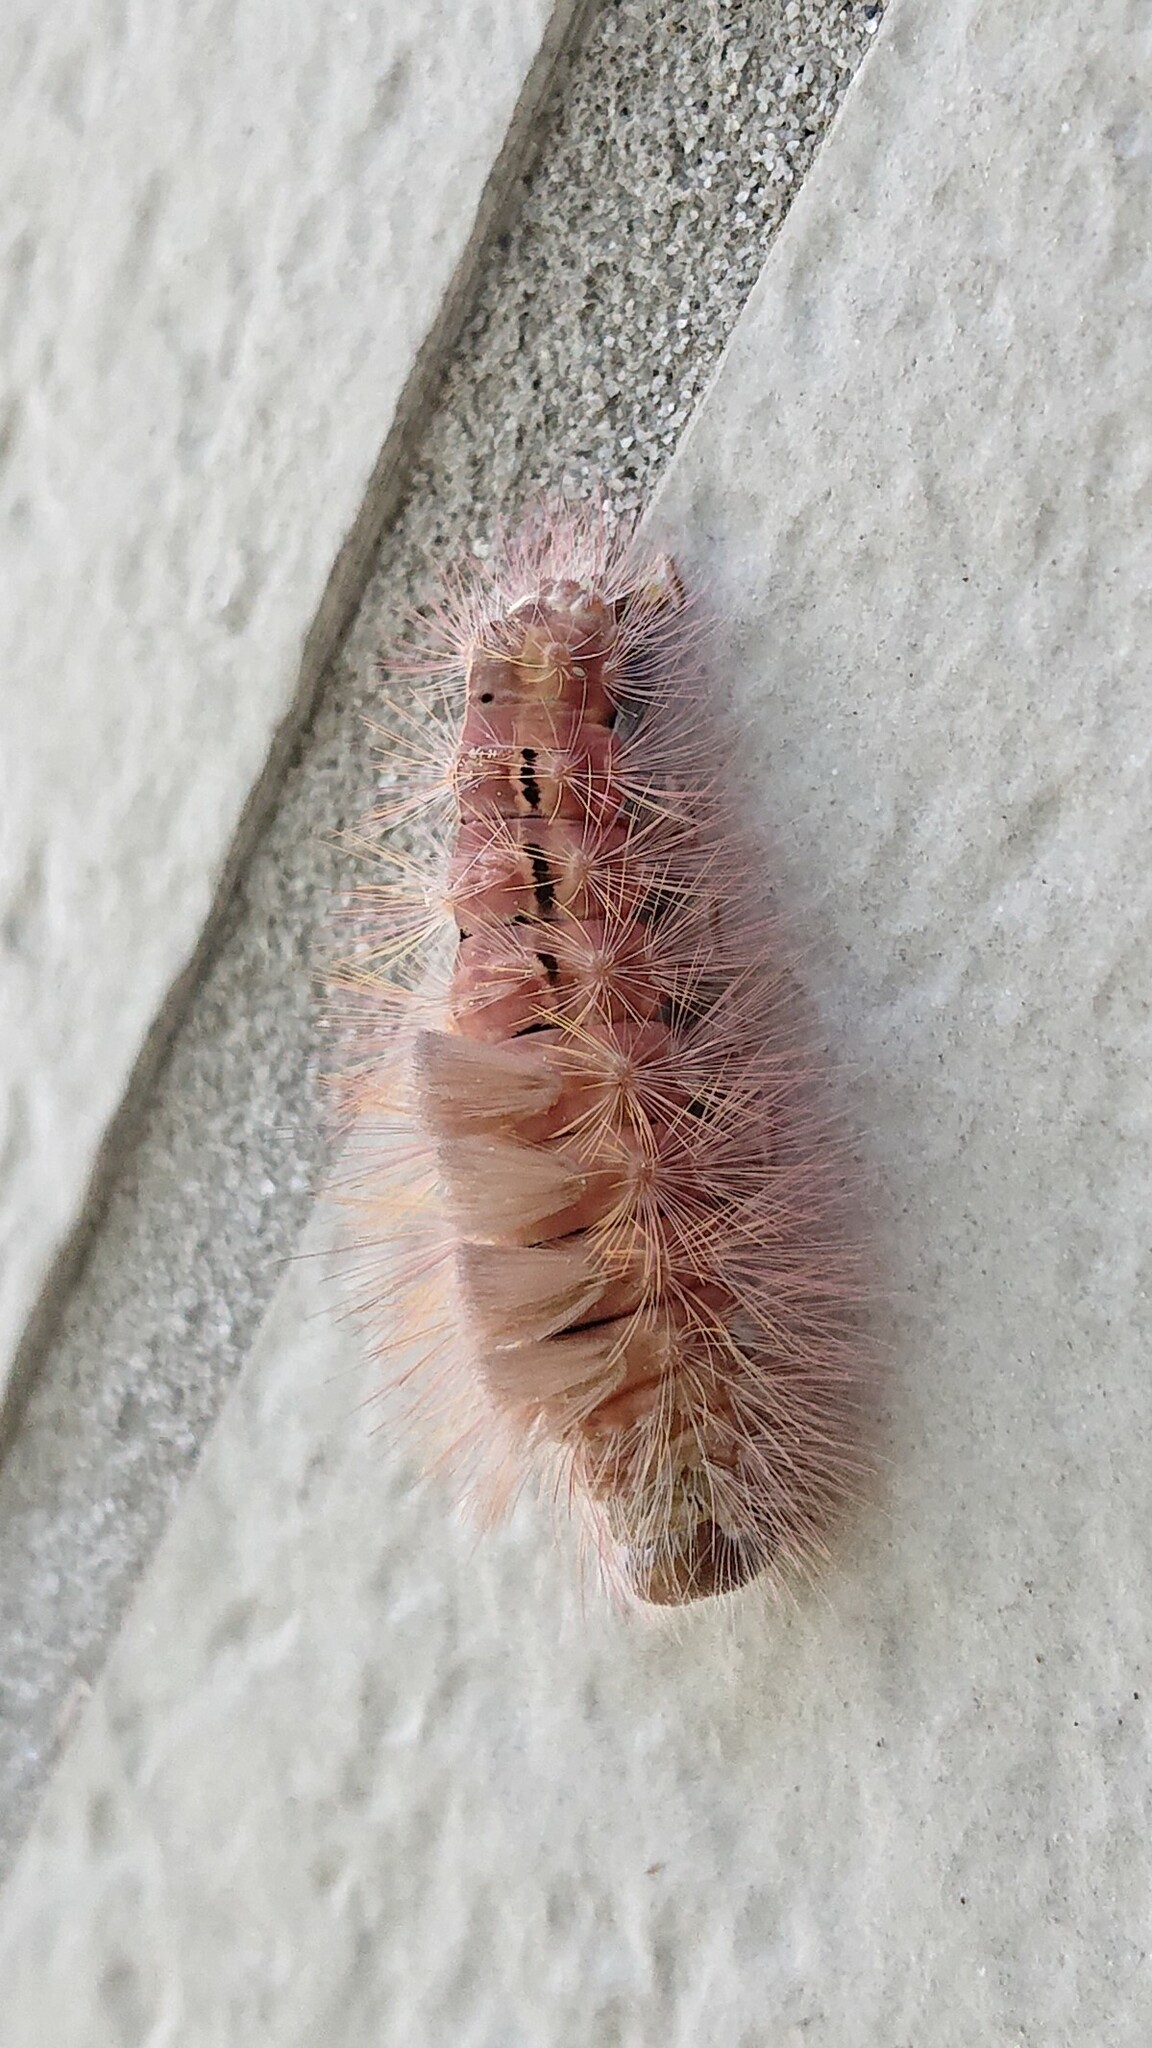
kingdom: Animalia
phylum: Arthropoda
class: Insecta
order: Lepidoptera
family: Erebidae
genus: Calliteara
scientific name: Calliteara pudibunda
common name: Pale tussock
